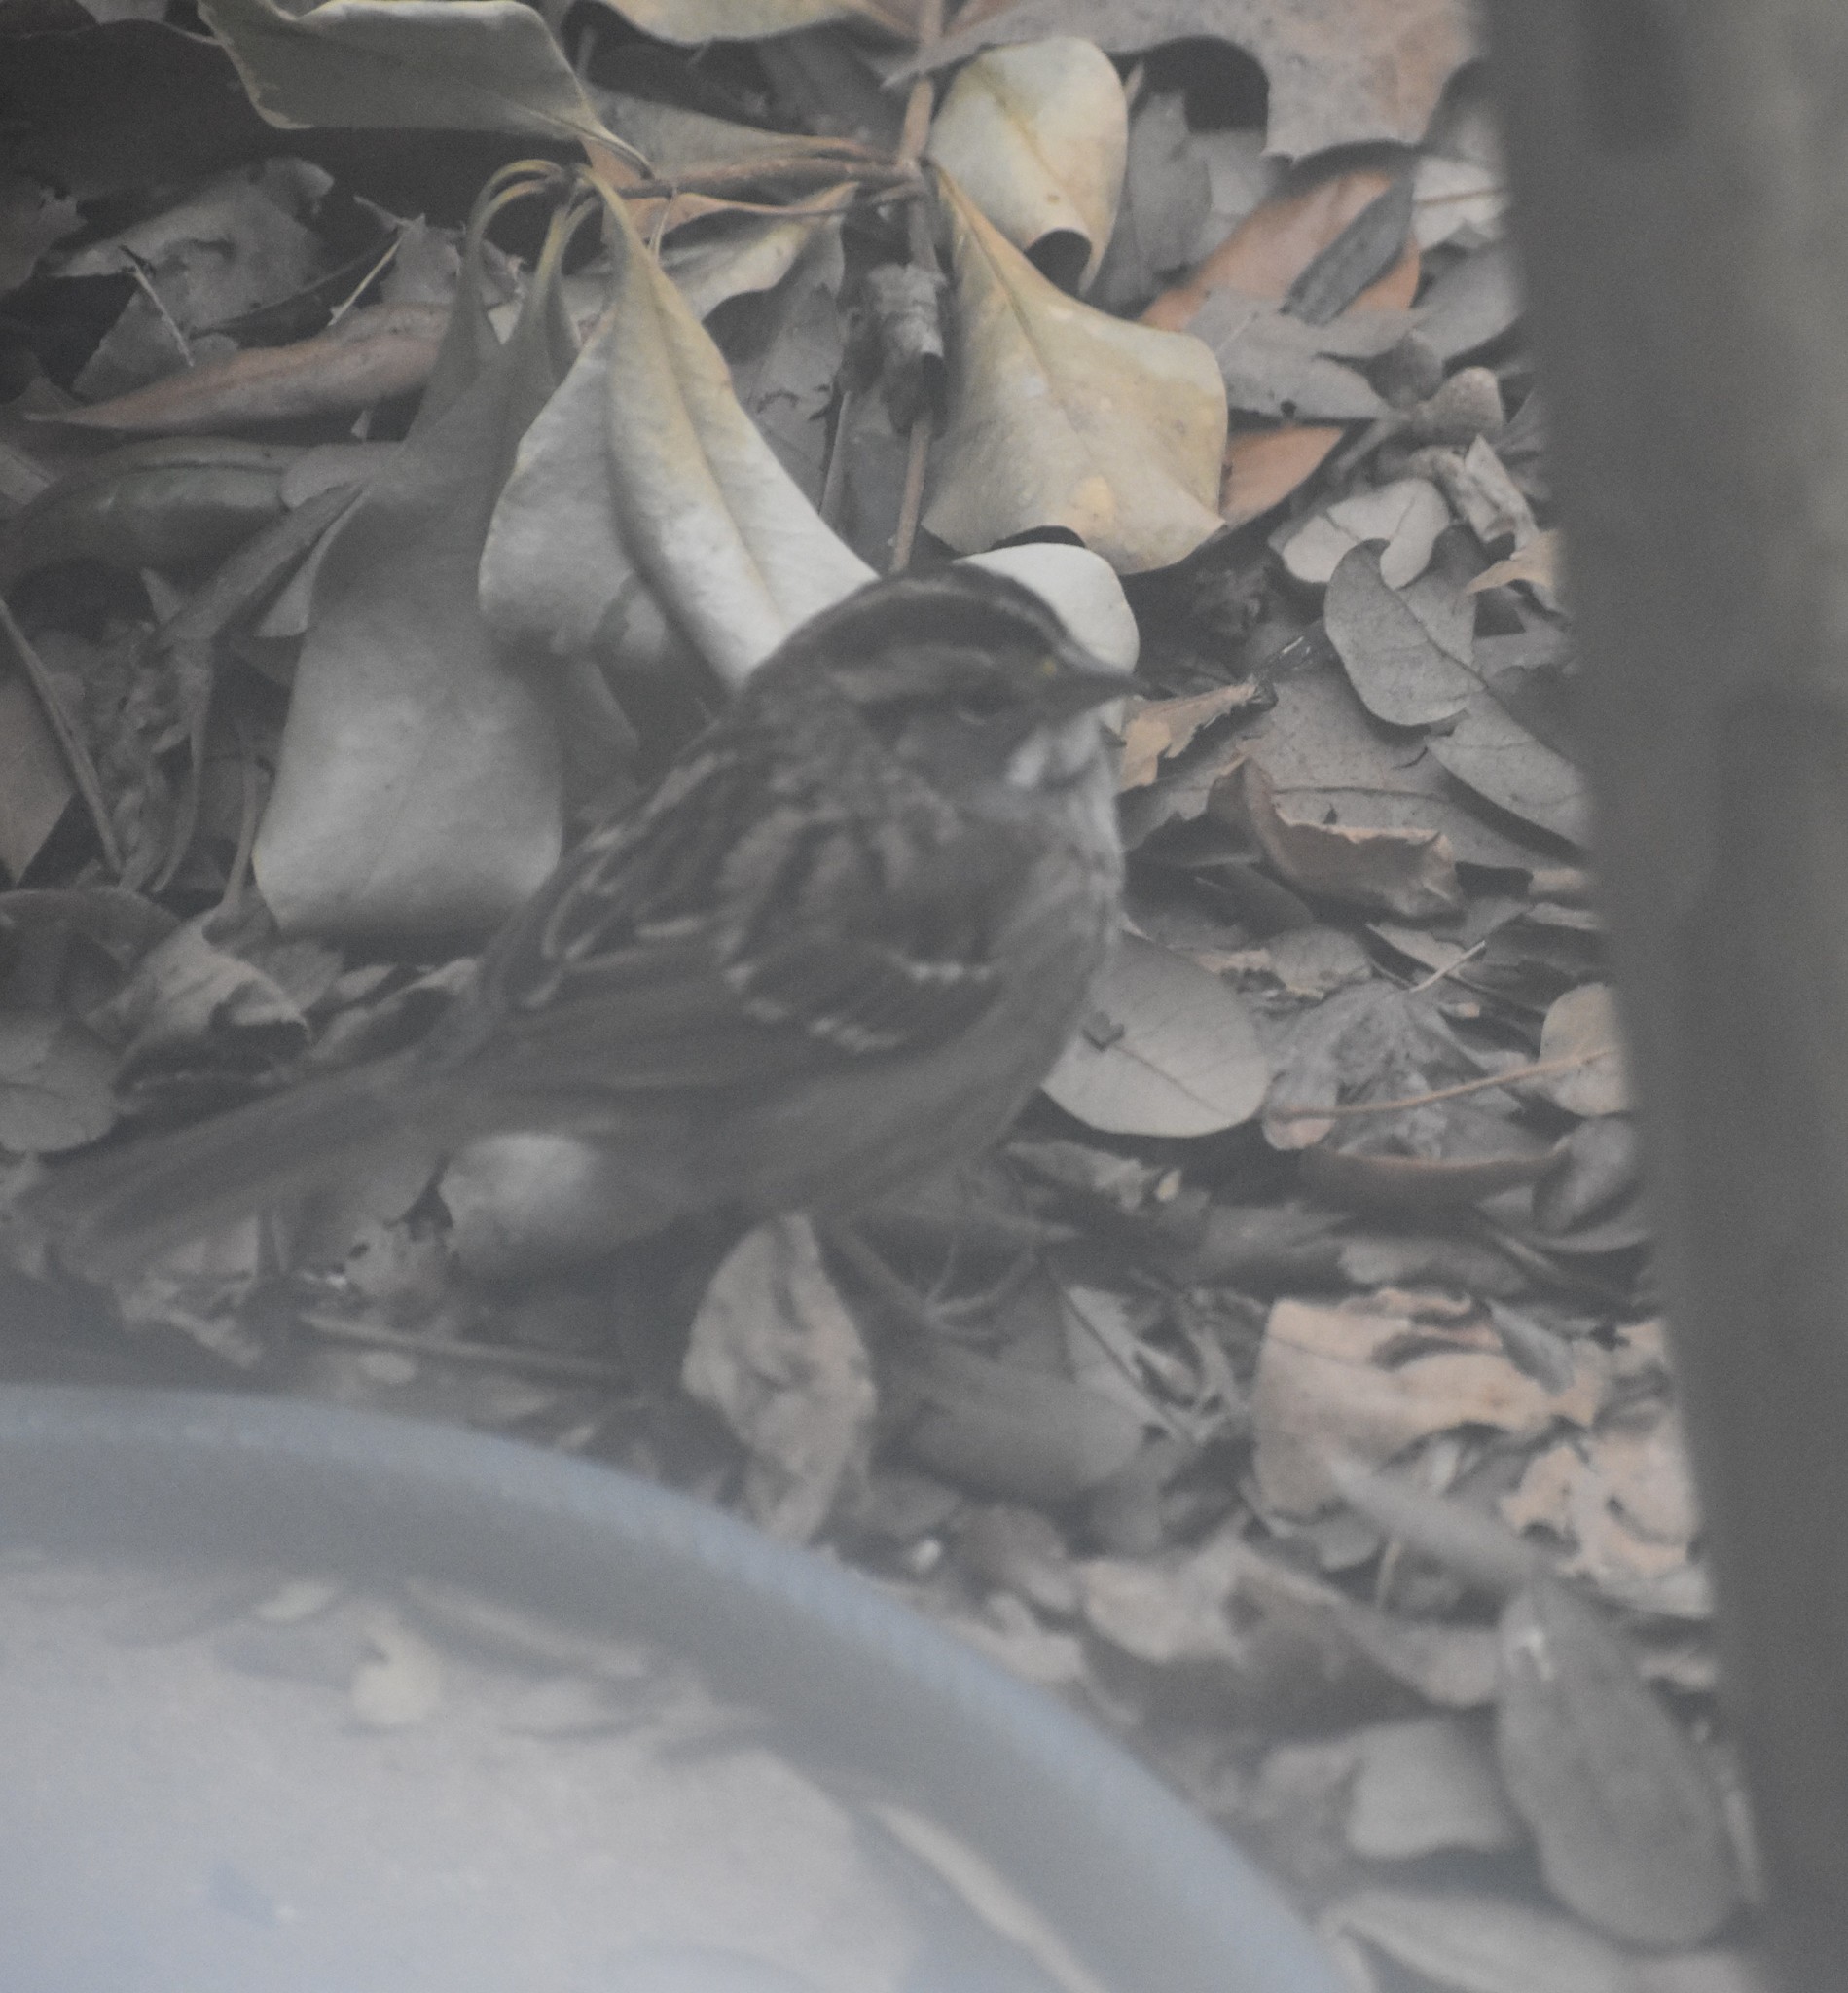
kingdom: Animalia
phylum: Chordata
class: Aves
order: Passeriformes
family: Passerellidae
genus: Zonotrichia
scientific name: Zonotrichia albicollis
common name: White-throated sparrow
